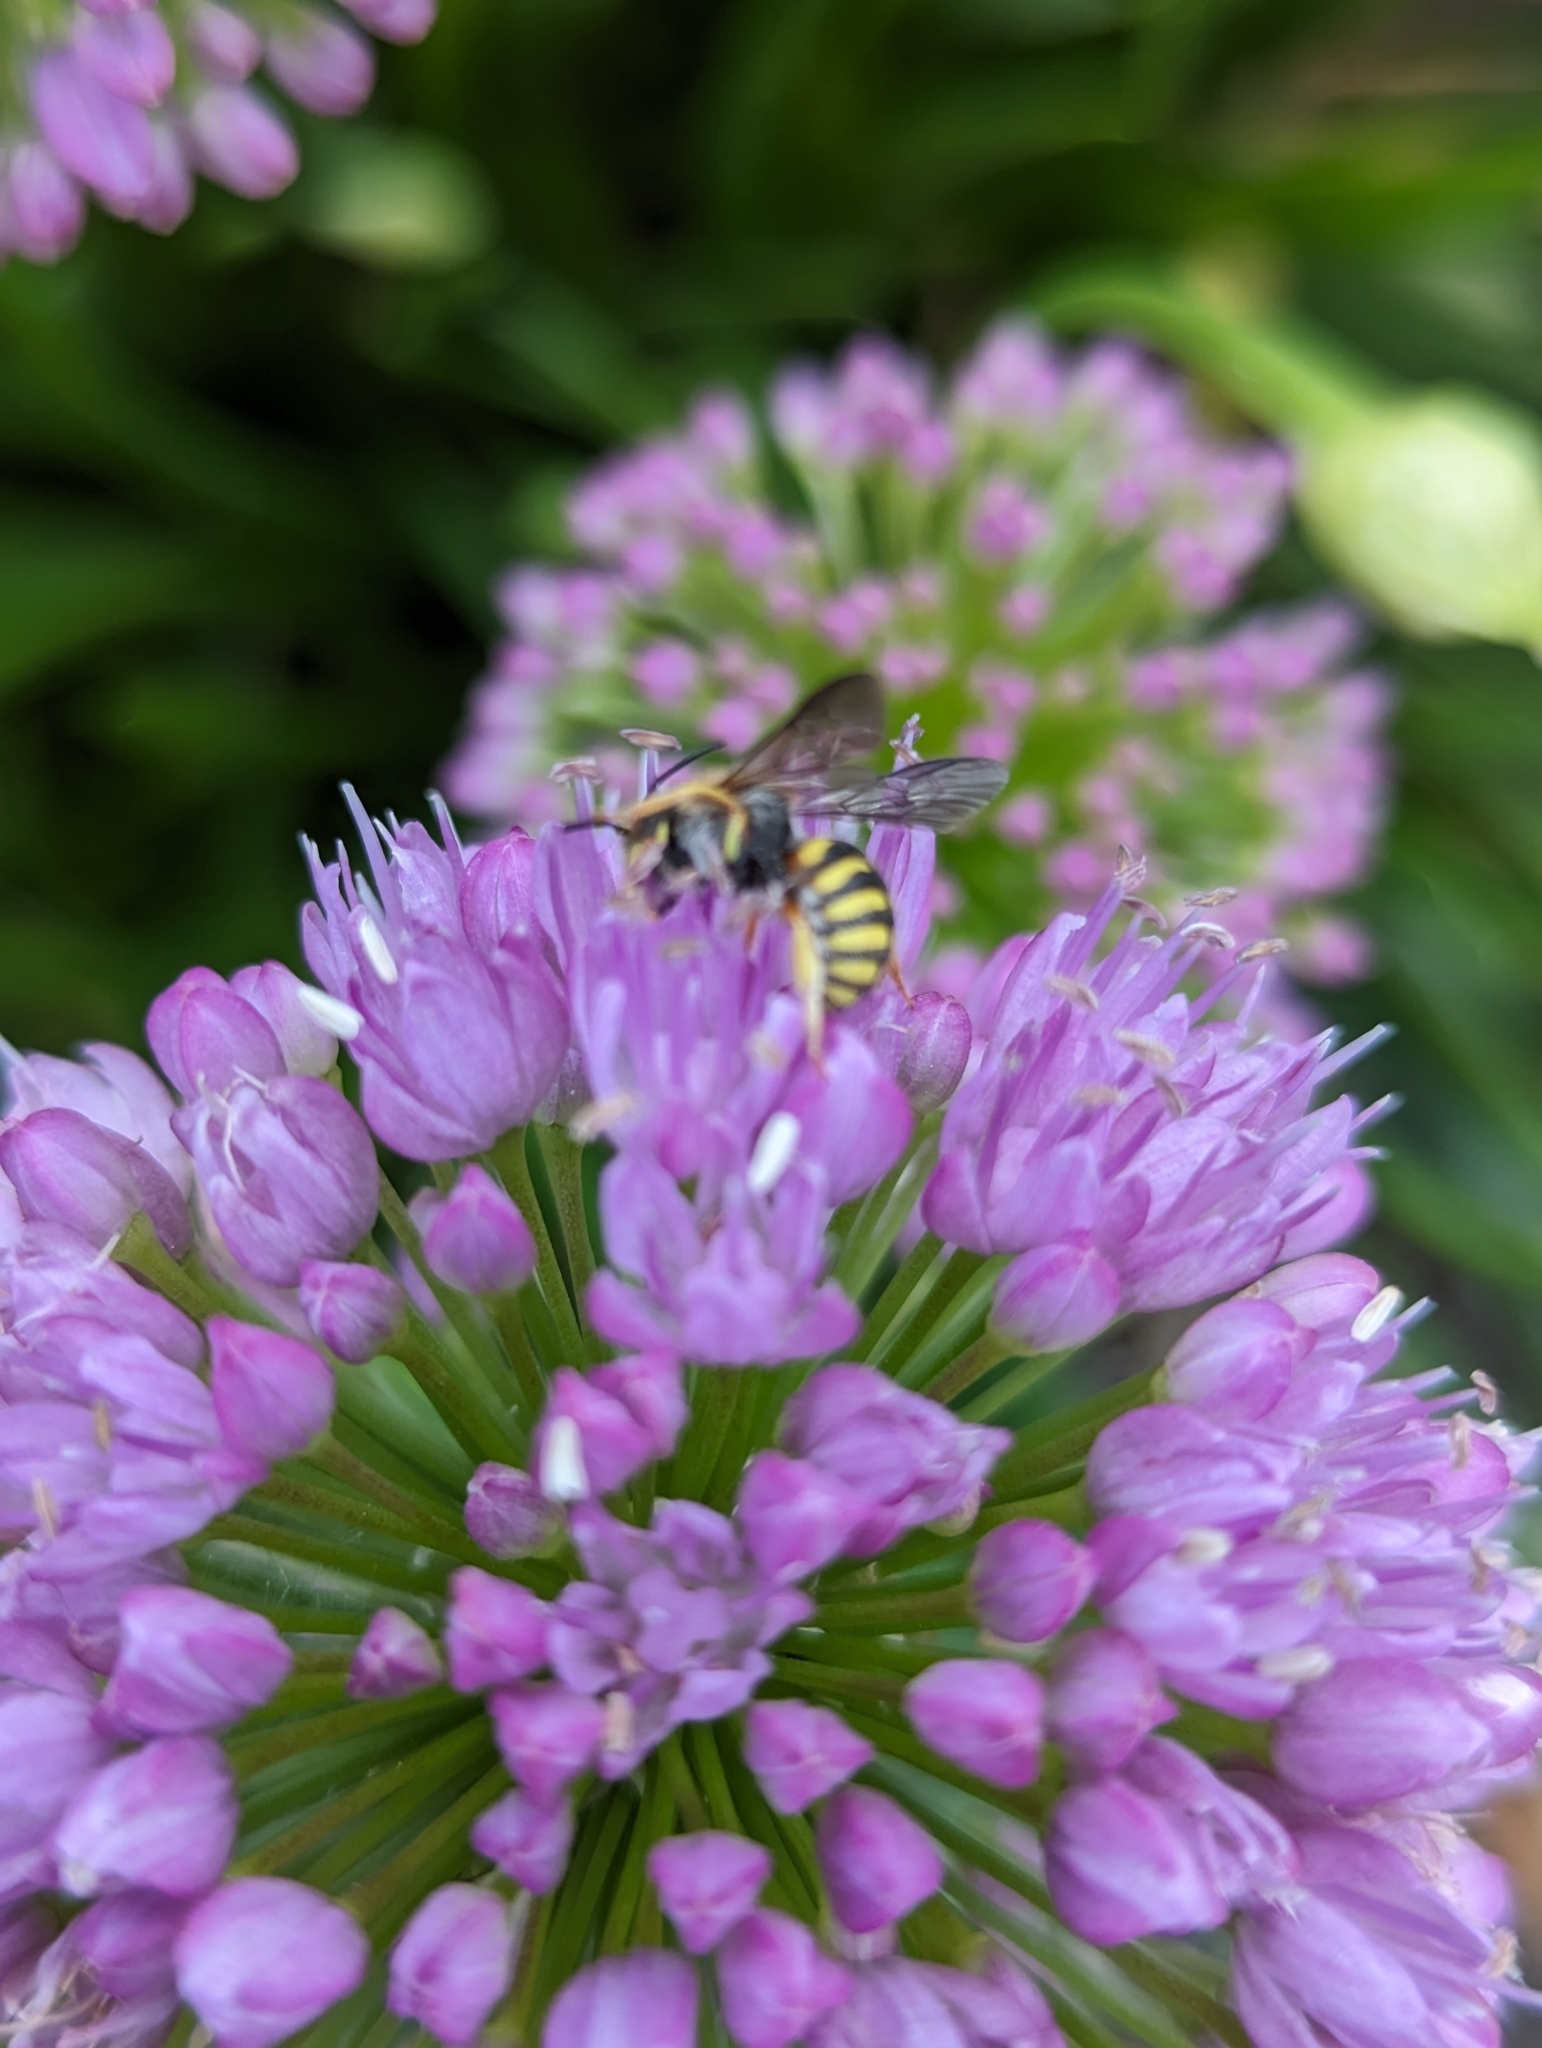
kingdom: Animalia
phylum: Arthropoda
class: Insecta
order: Hymenoptera
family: Megachilidae
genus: Anthidium
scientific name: Anthidium oblongatum
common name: Oblong wool carder bee
